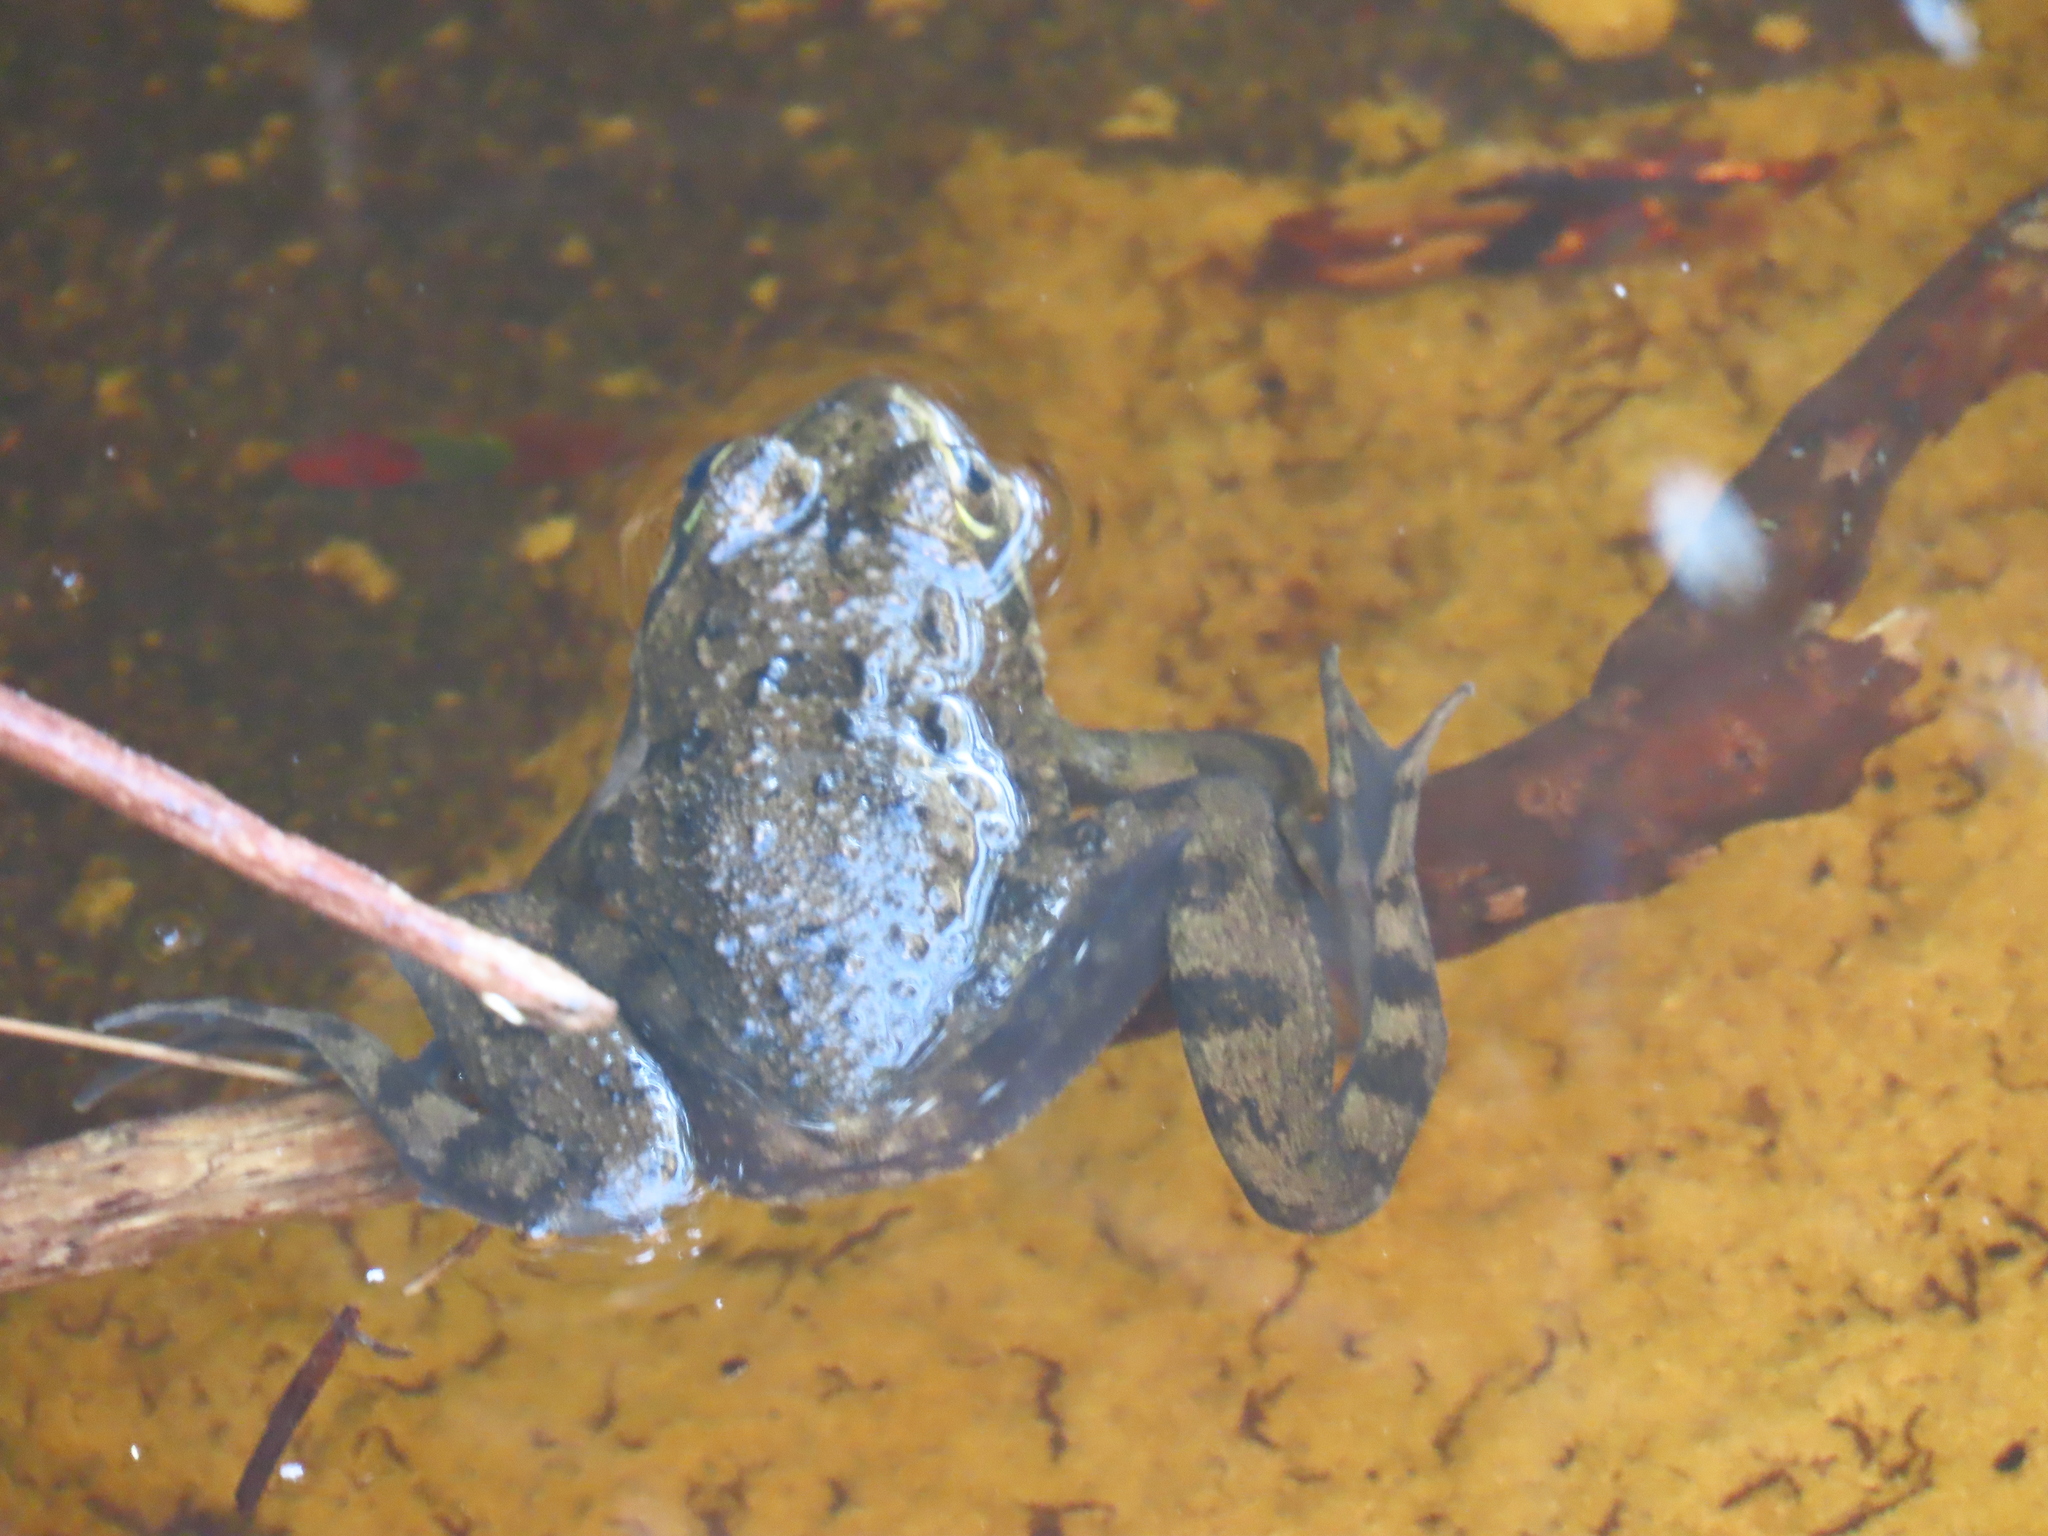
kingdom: Animalia
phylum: Chordata
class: Amphibia
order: Anura
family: Pyxicephalidae
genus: Amietia
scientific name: Amietia fuscigula
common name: Cape rana
